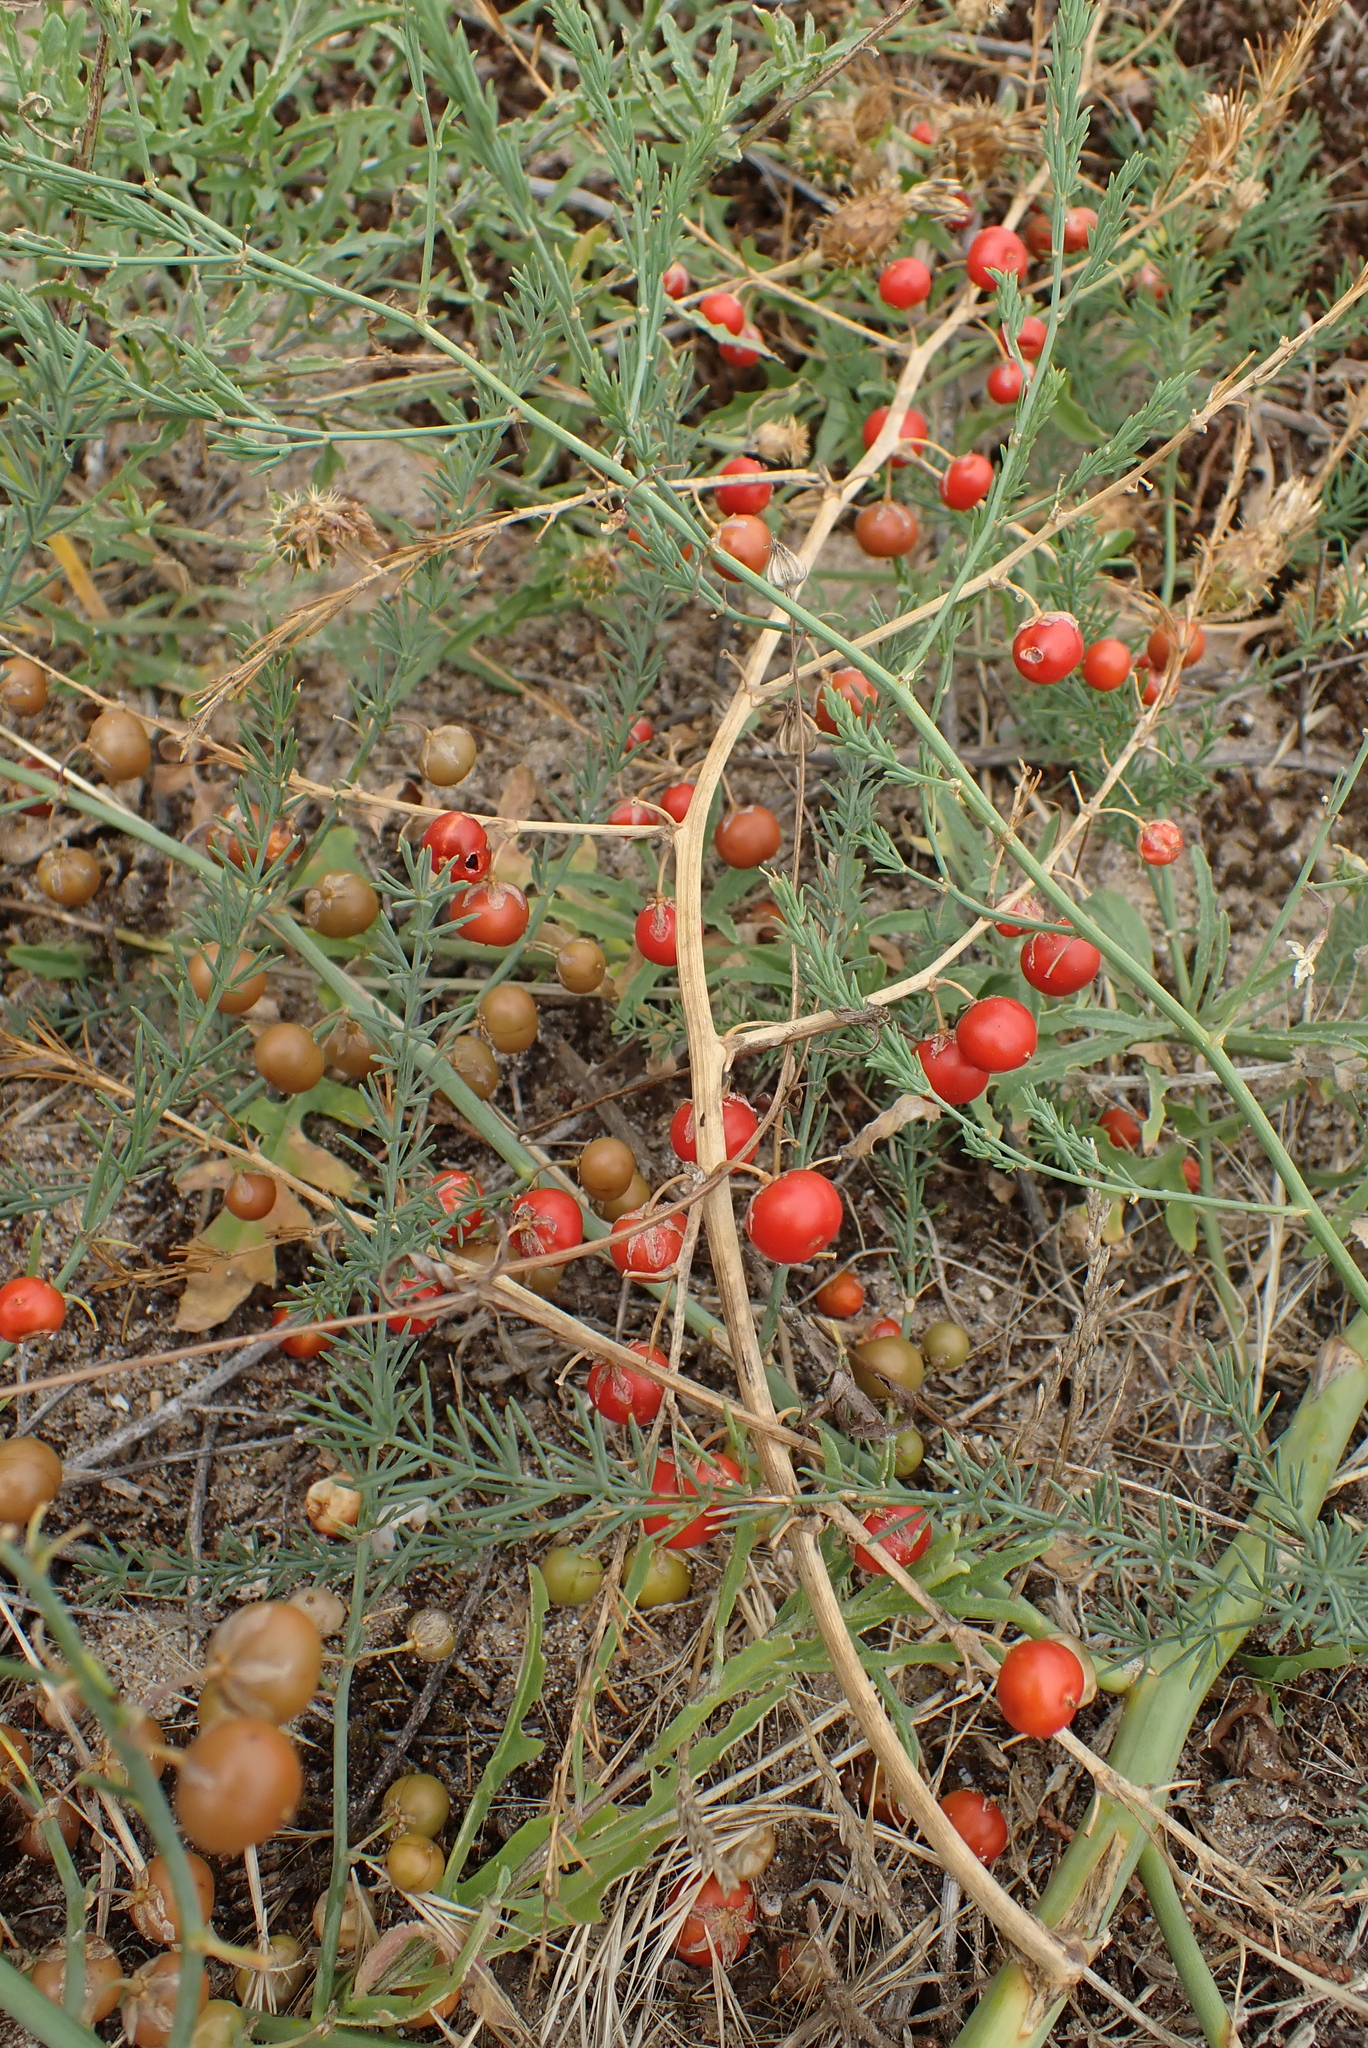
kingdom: Plantae
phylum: Tracheophyta
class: Liliopsida
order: Asparagales
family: Asparagaceae
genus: Asparagus
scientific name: Asparagus prostratus
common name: Wild asparagus
